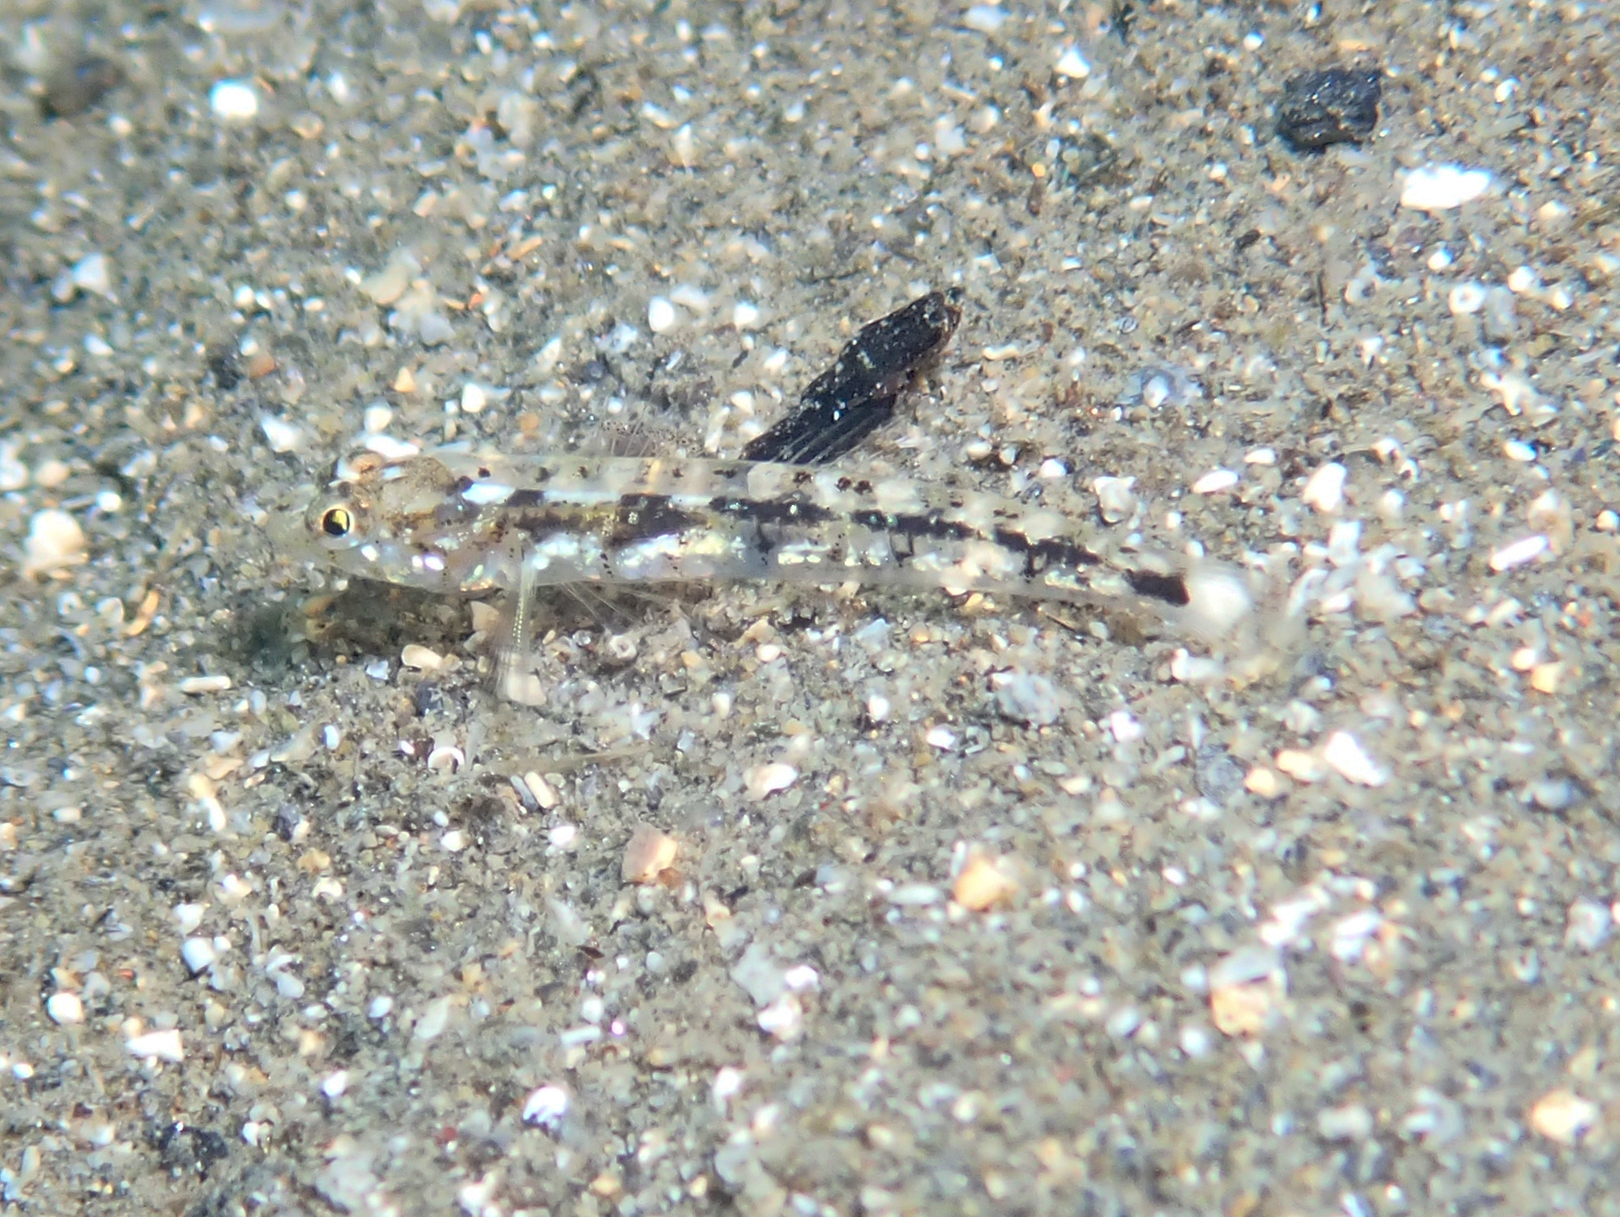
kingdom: Animalia
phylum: Chordata
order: Perciformes
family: Gobiidae
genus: Pomatoschistus
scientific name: Pomatoschistus bathi
